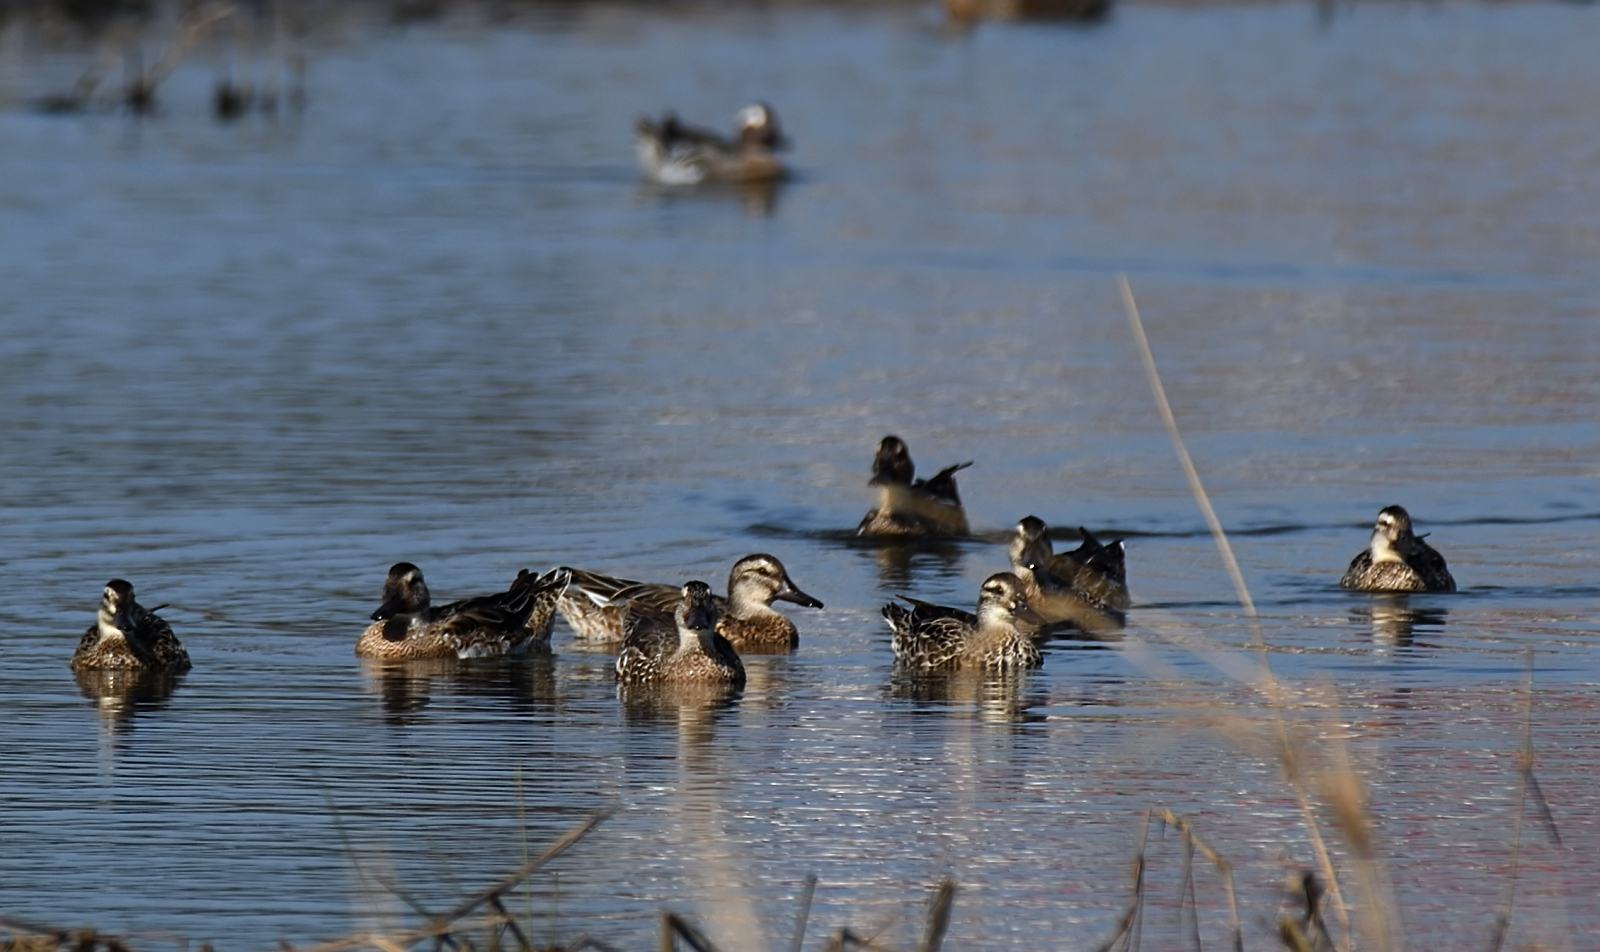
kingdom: Animalia
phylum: Chordata
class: Aves
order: Anseriformes
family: Anatidae
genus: Spatula
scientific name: Spatula querquedula
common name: Garganey
